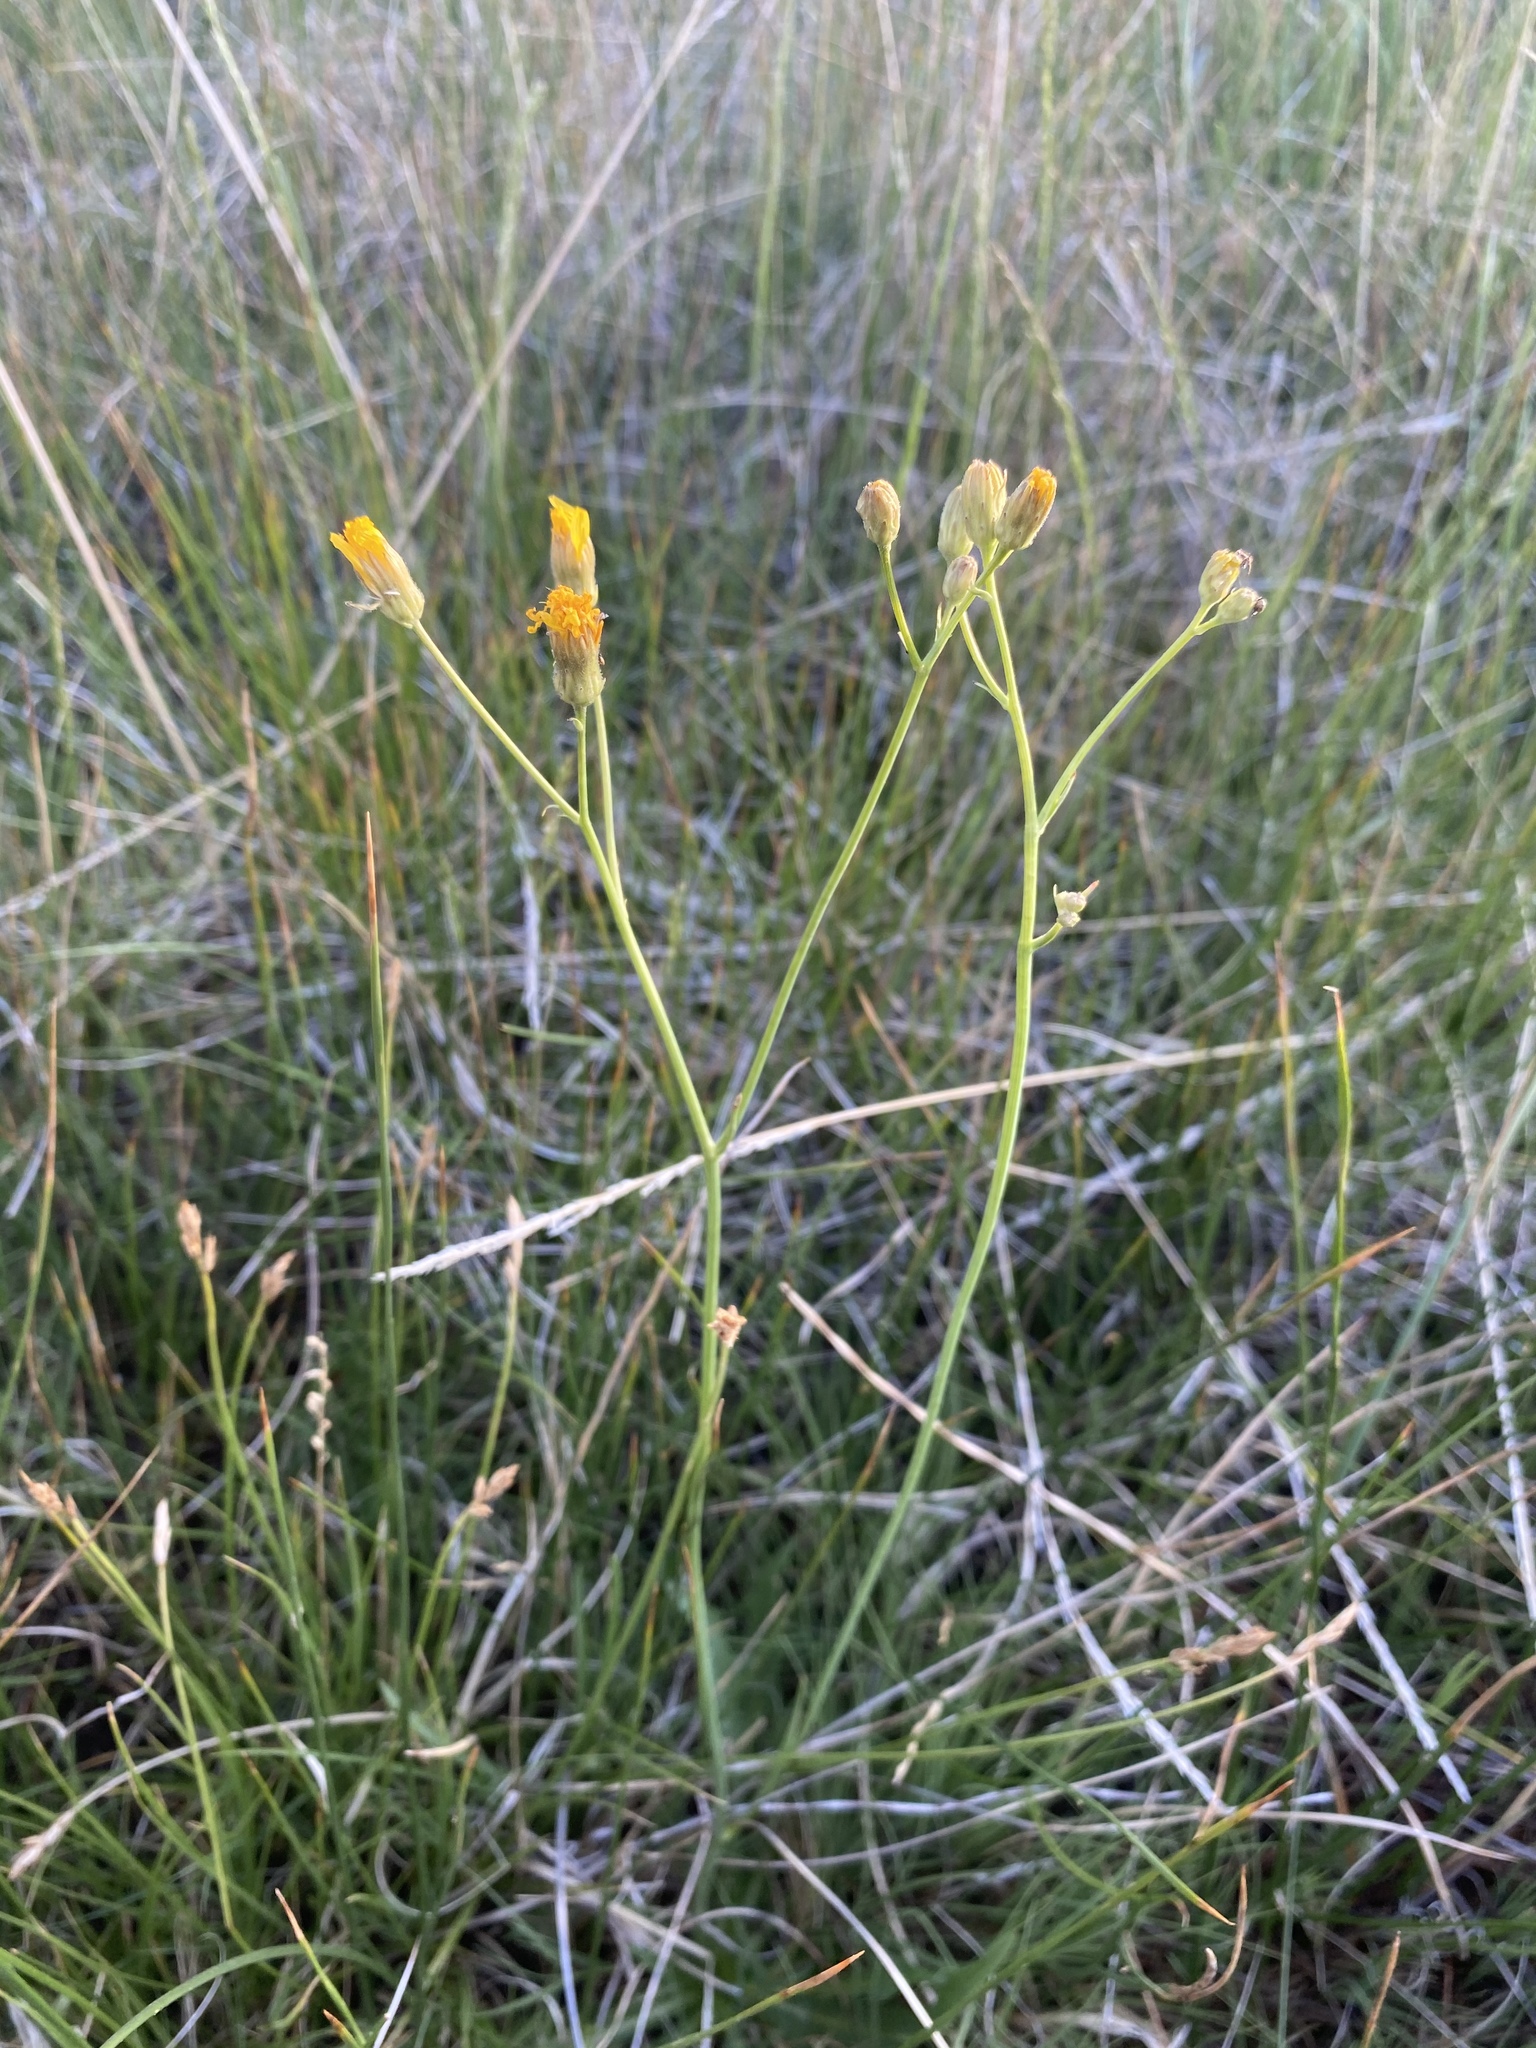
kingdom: Plantae
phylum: Tracheophyta
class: Magnoliopsida
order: Asterales
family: Asteraceae
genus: Crepis
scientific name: Crepis runcinata
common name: Dandelion hawksbeard
